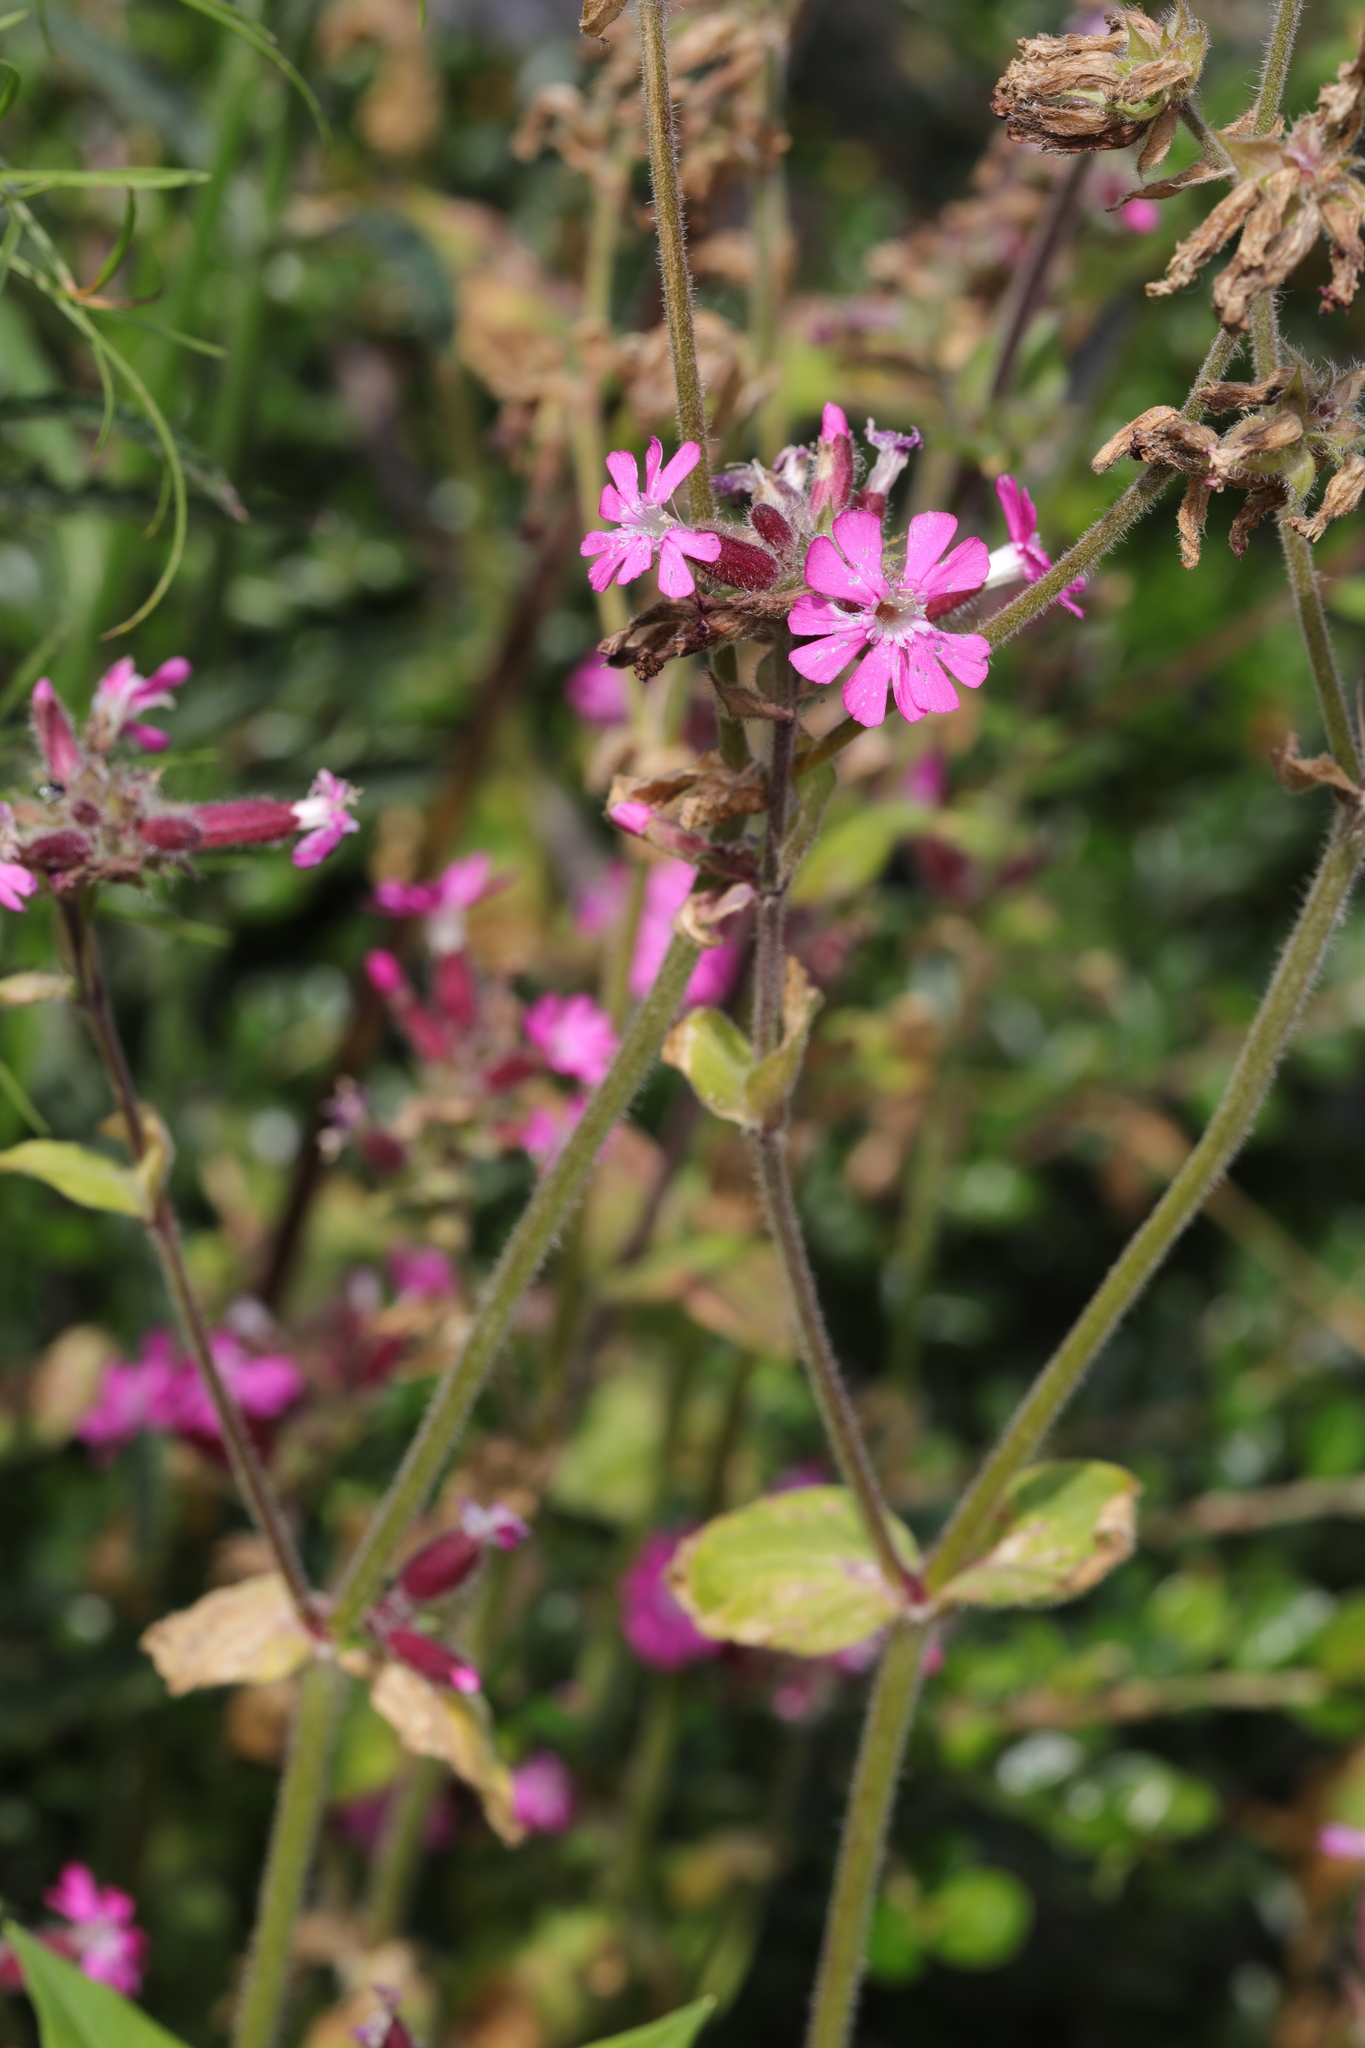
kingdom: Plantae
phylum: Tracheophyta
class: Magnoliopsida
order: Caryophyllales
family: Caryophyllaceae
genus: Silene
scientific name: Silene dioica
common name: Red campion
